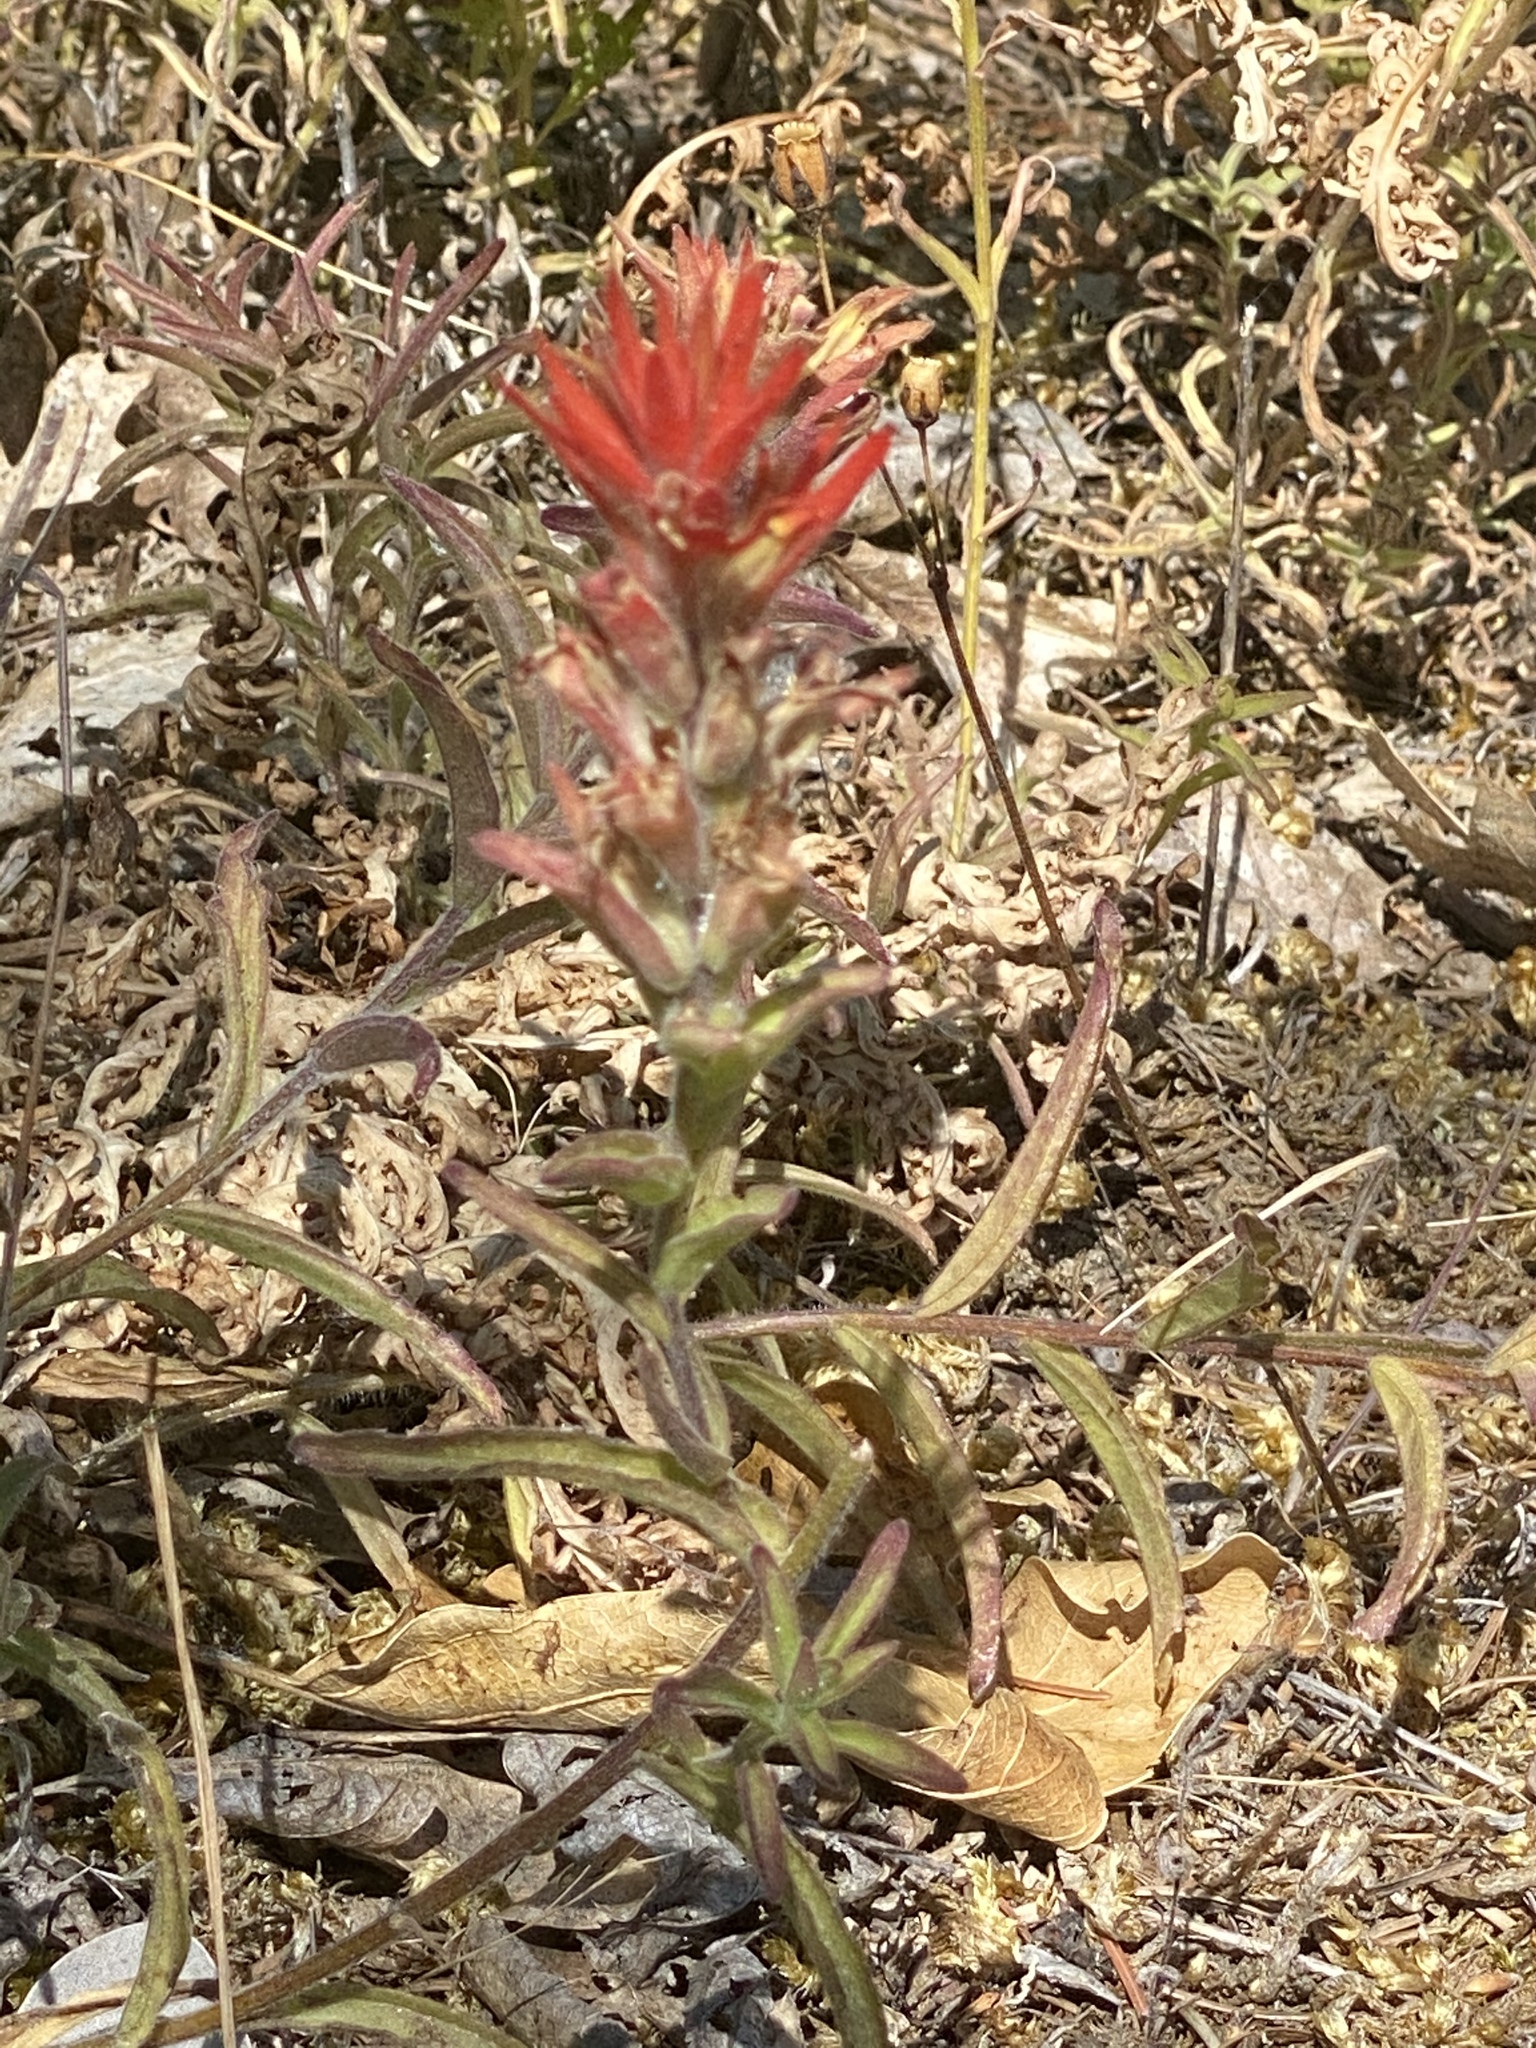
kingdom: Plantae
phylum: Tracheophyta
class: Magnoliopsida
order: Lamiales
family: Orobanchaceae
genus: Castilleja
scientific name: Castilleja pruinosa
